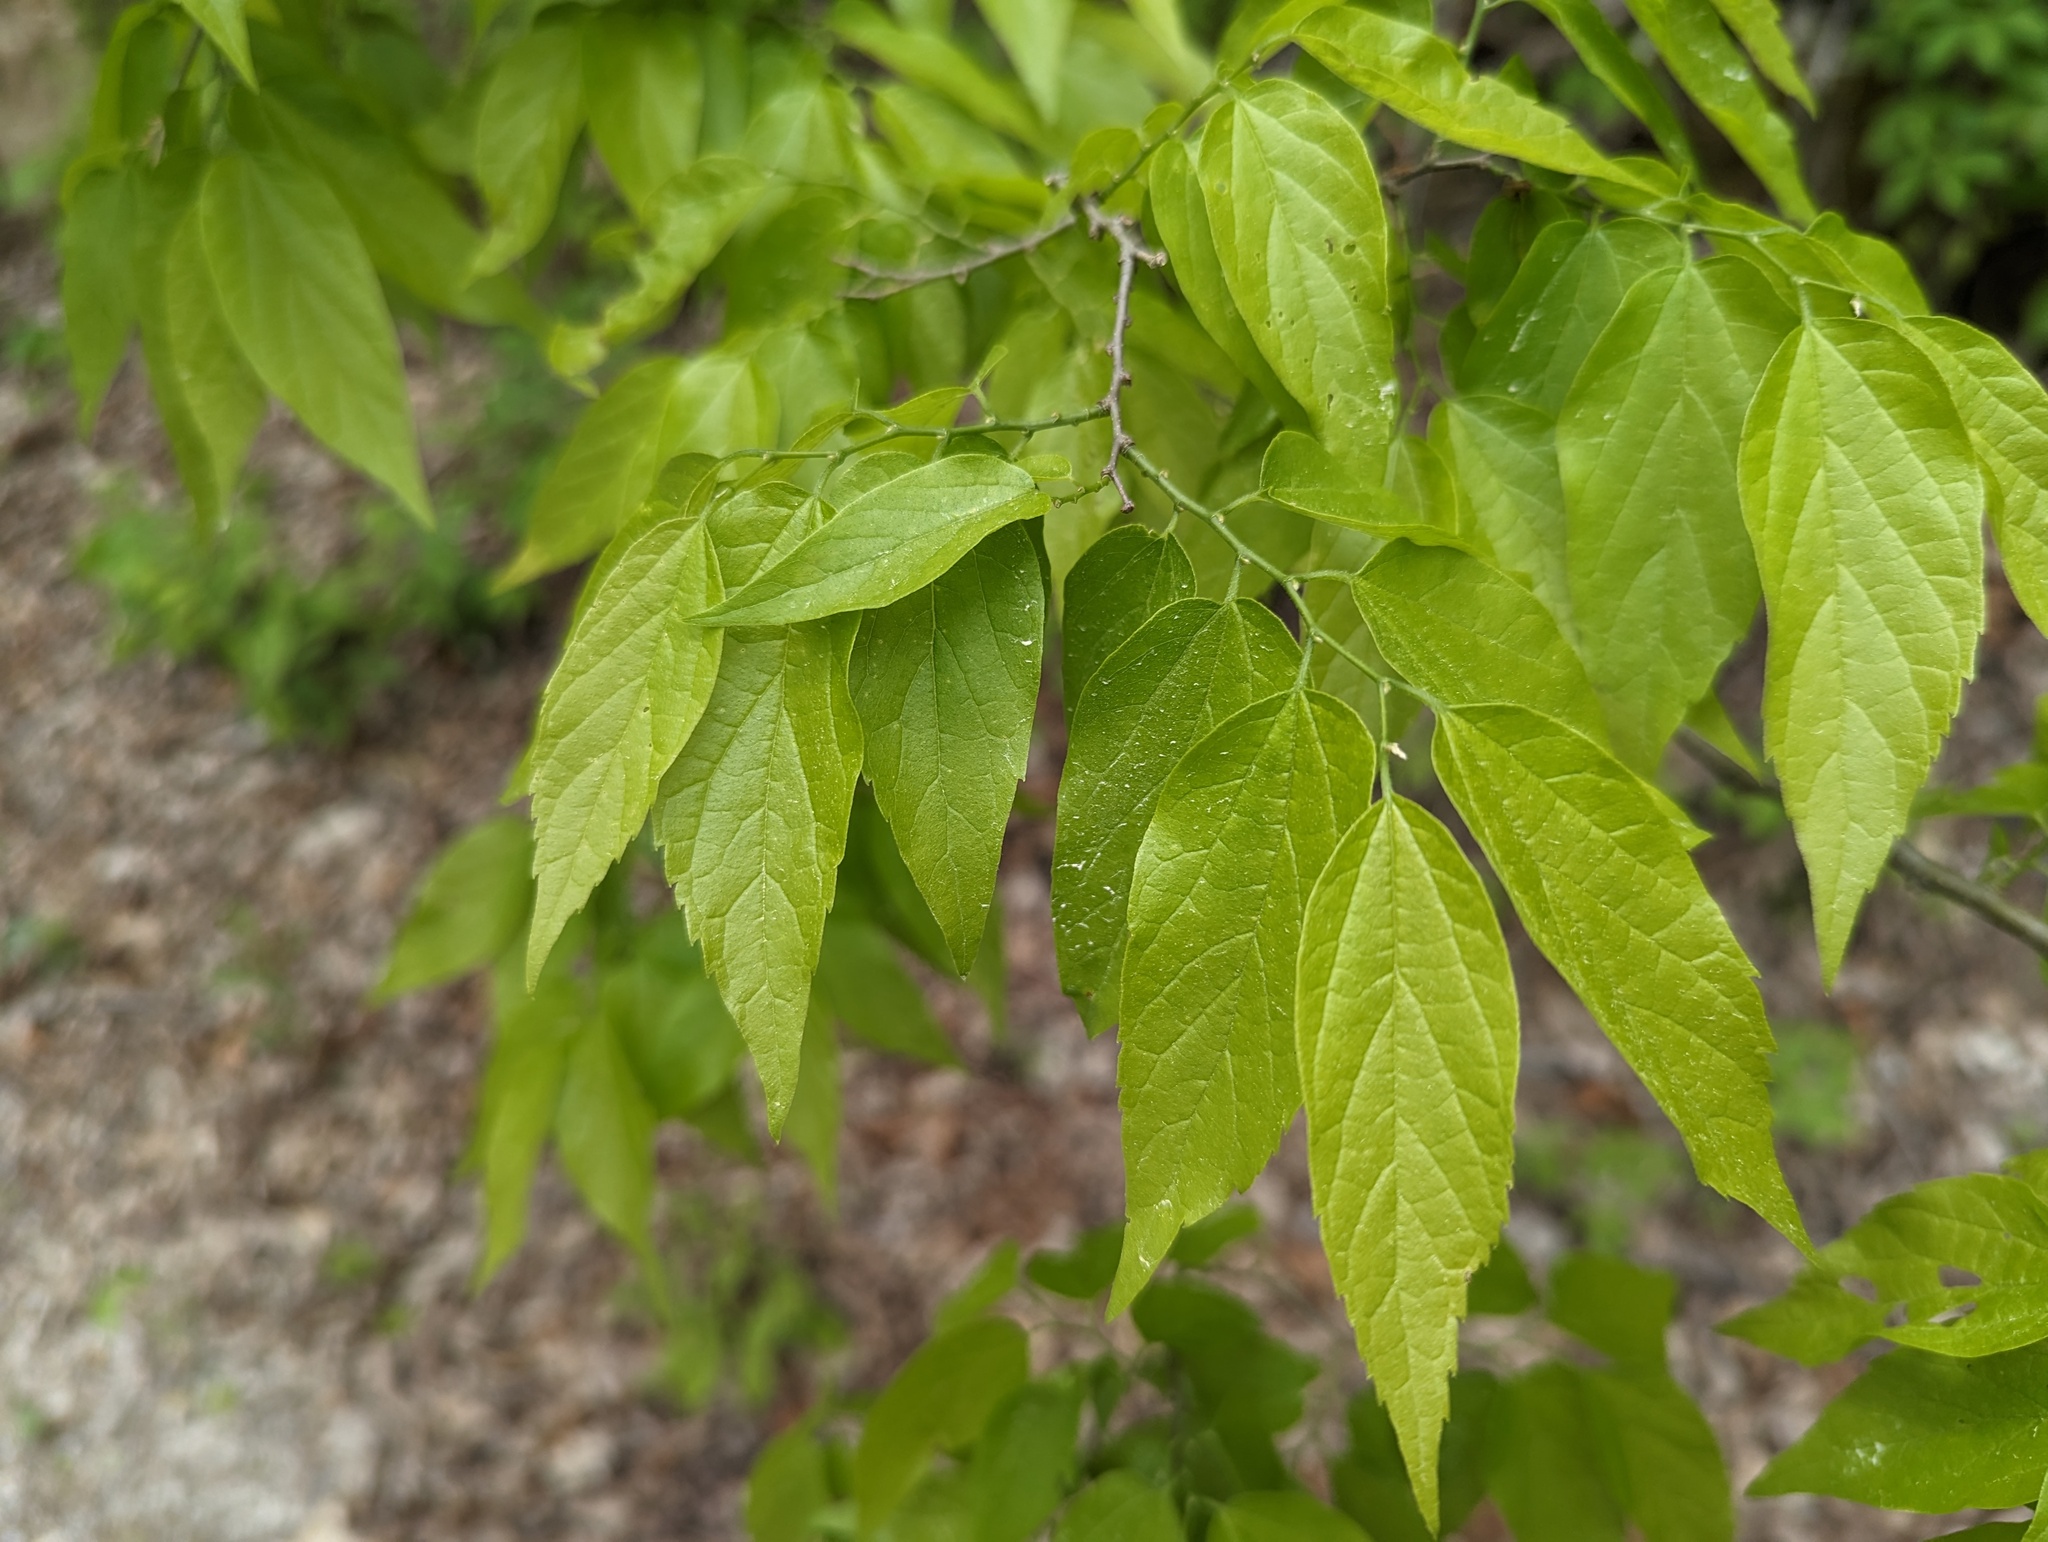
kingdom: Plantae
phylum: Tracheophyta
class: Magnoliopsida
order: Rosales
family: Cannabaceae
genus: Celtis
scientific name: Celtis laevigata
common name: Sugarberry
